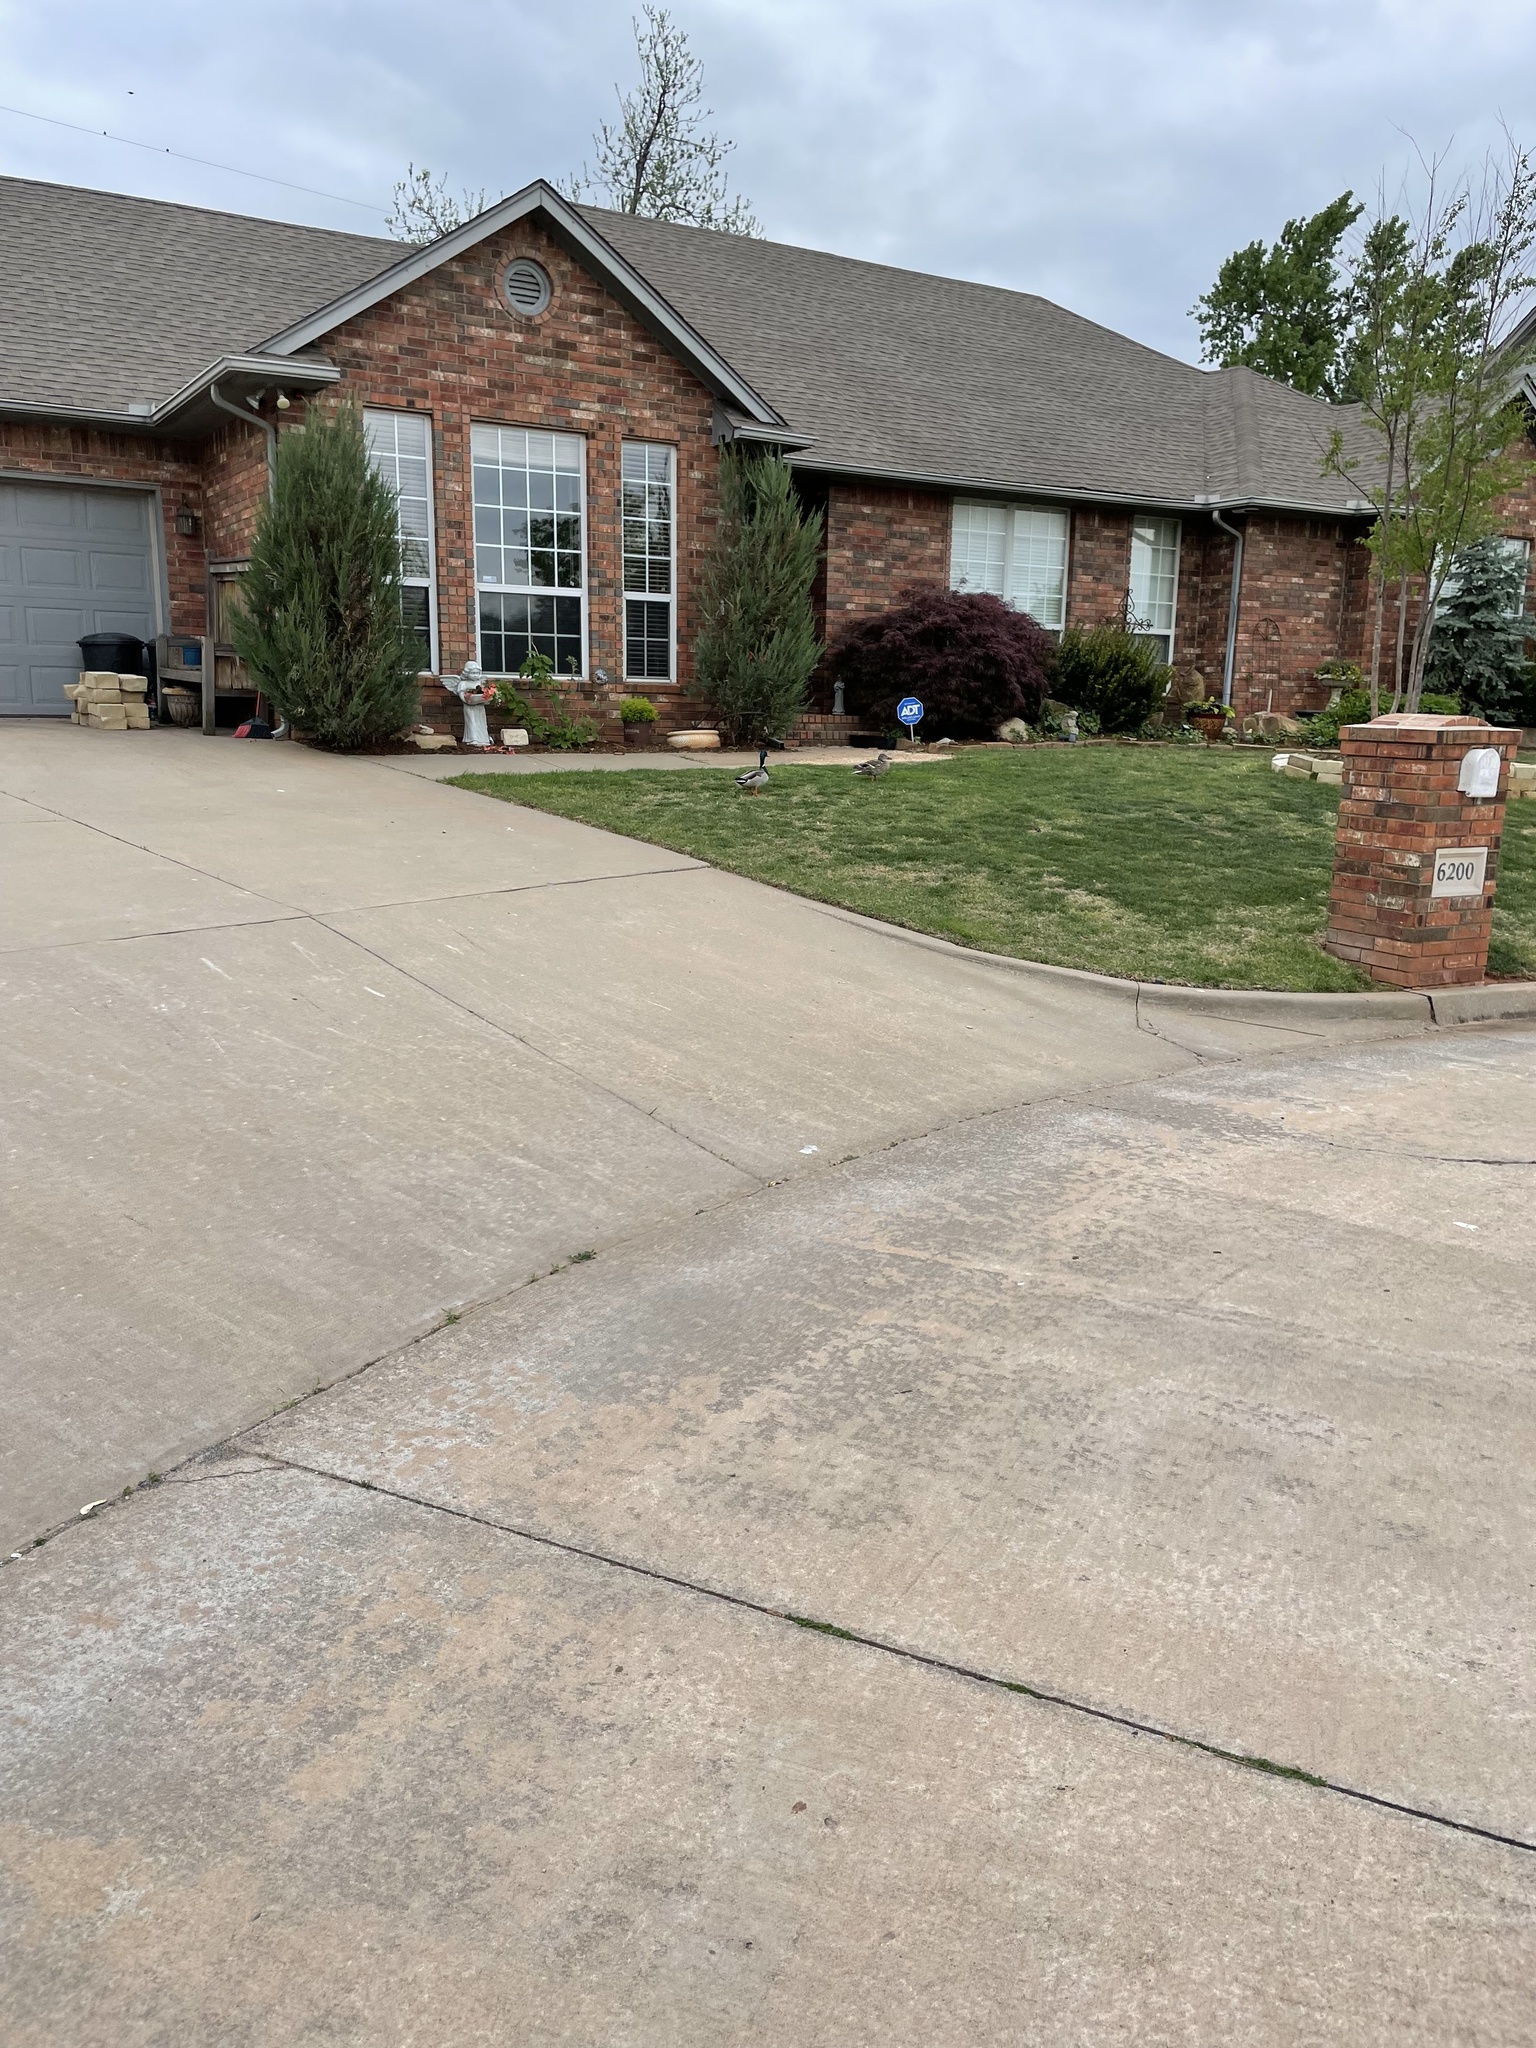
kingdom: Animalia
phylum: Chordata
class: Aves
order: Anseriformes
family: Anatidae
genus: Anas
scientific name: Anas platyrhynchos
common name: Mallard
